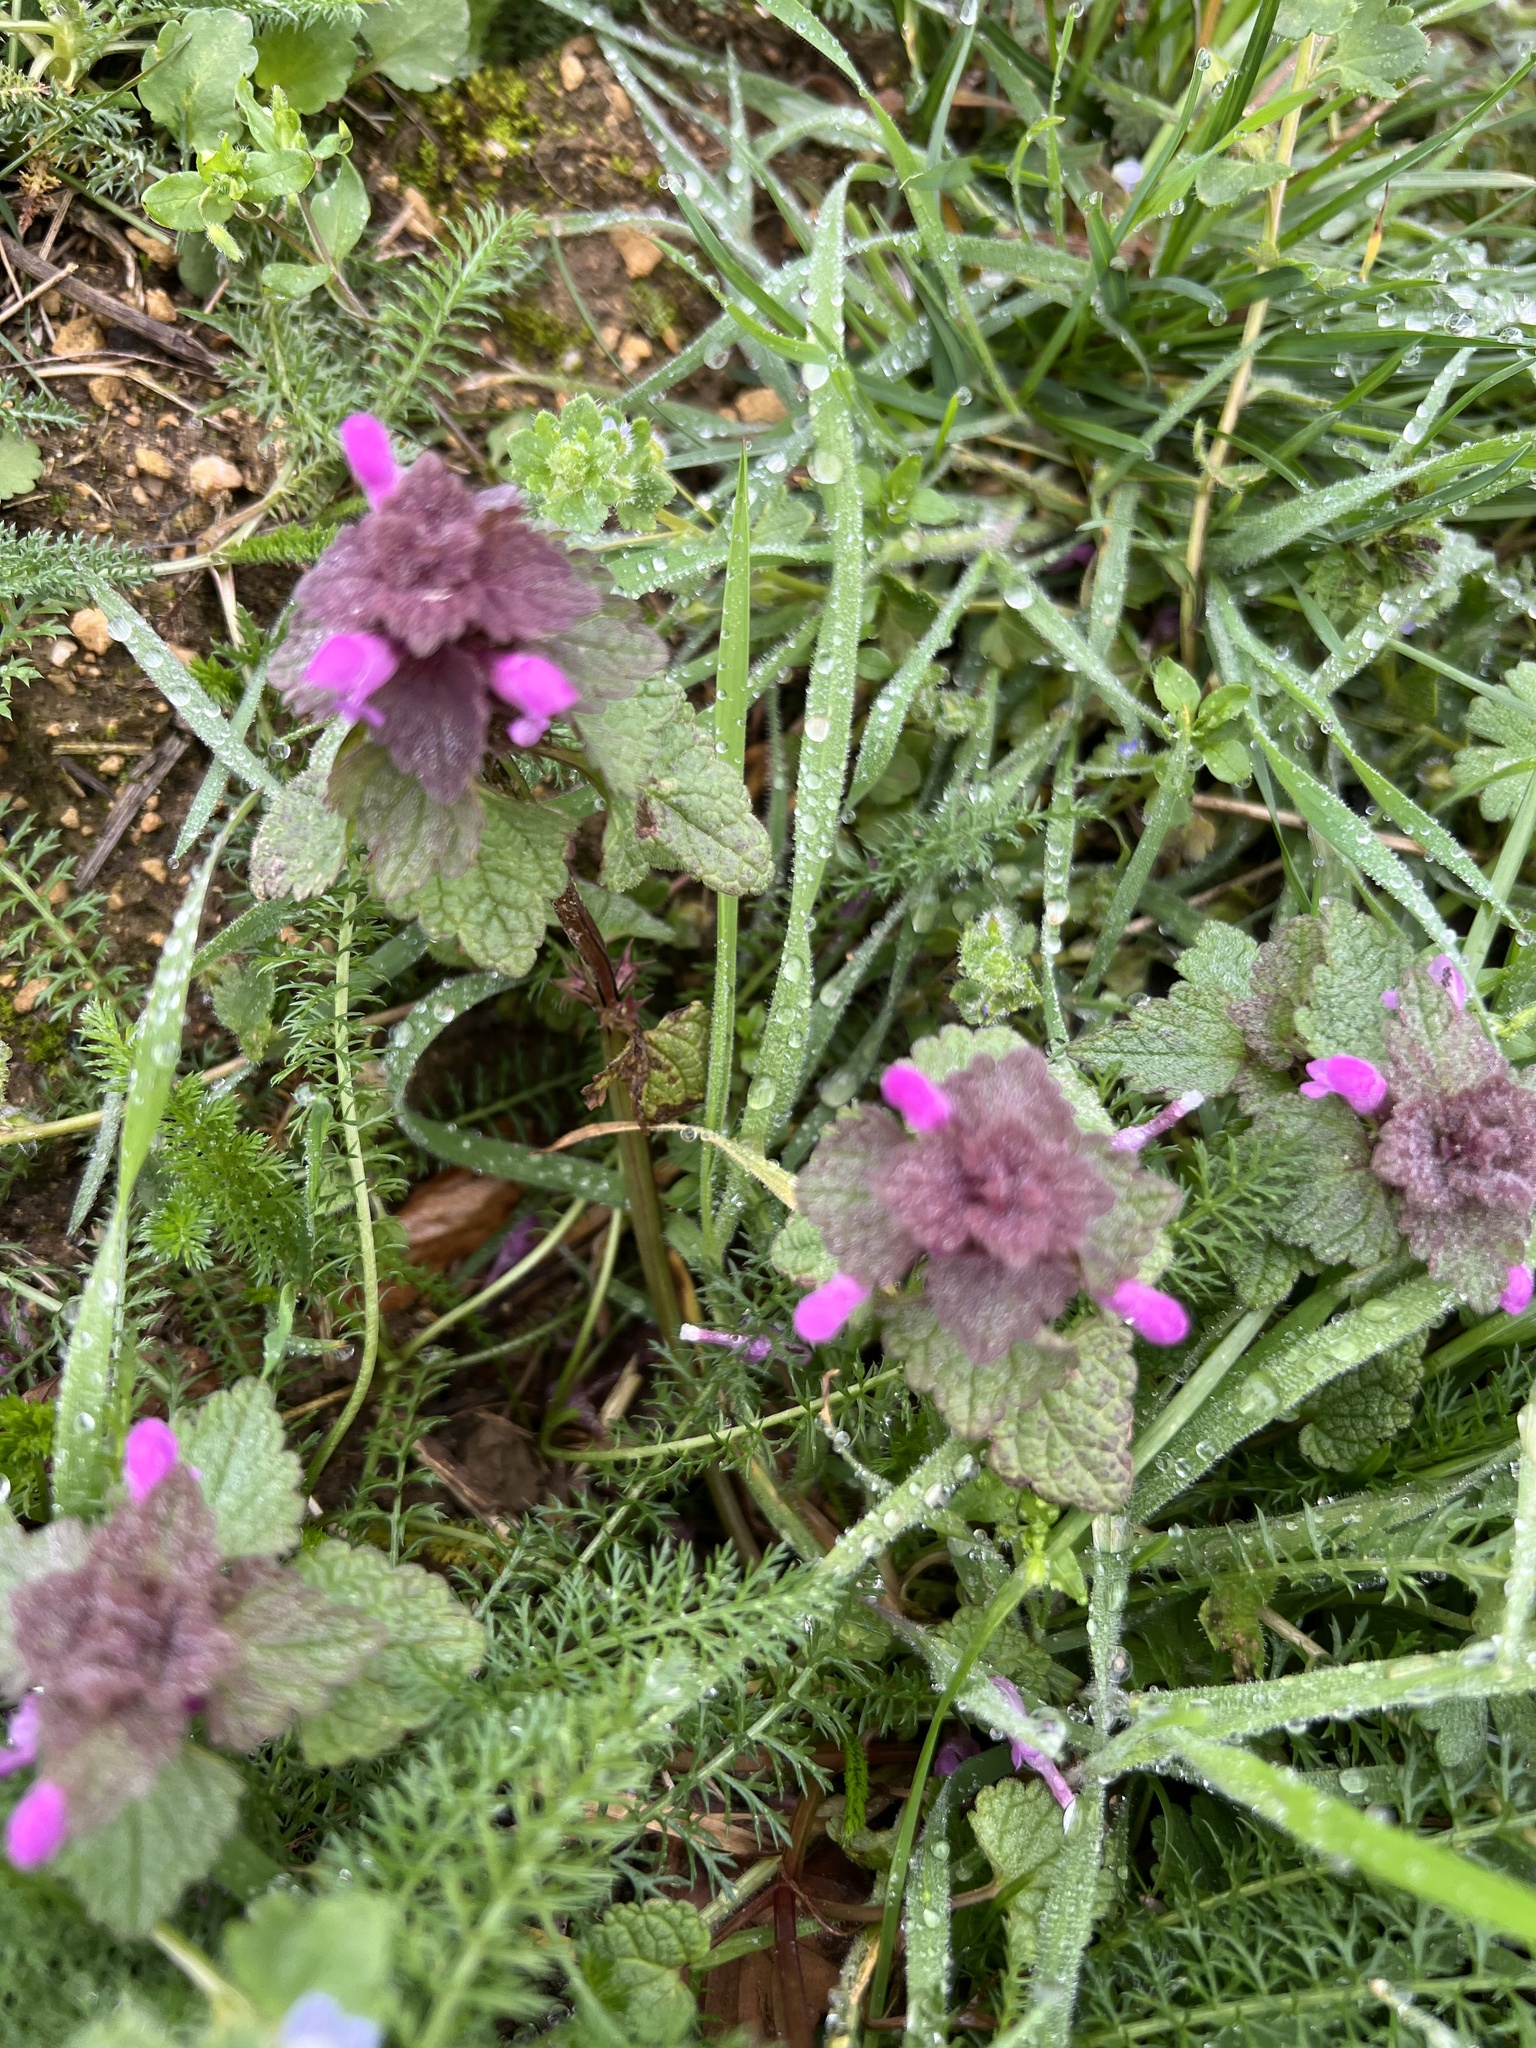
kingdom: Plantae
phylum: Tracheophyta
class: Magnoliopsida
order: Lamiales
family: Lamiaceae
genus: Lamium
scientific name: Lamium purpureum
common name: Red dead-nettle
